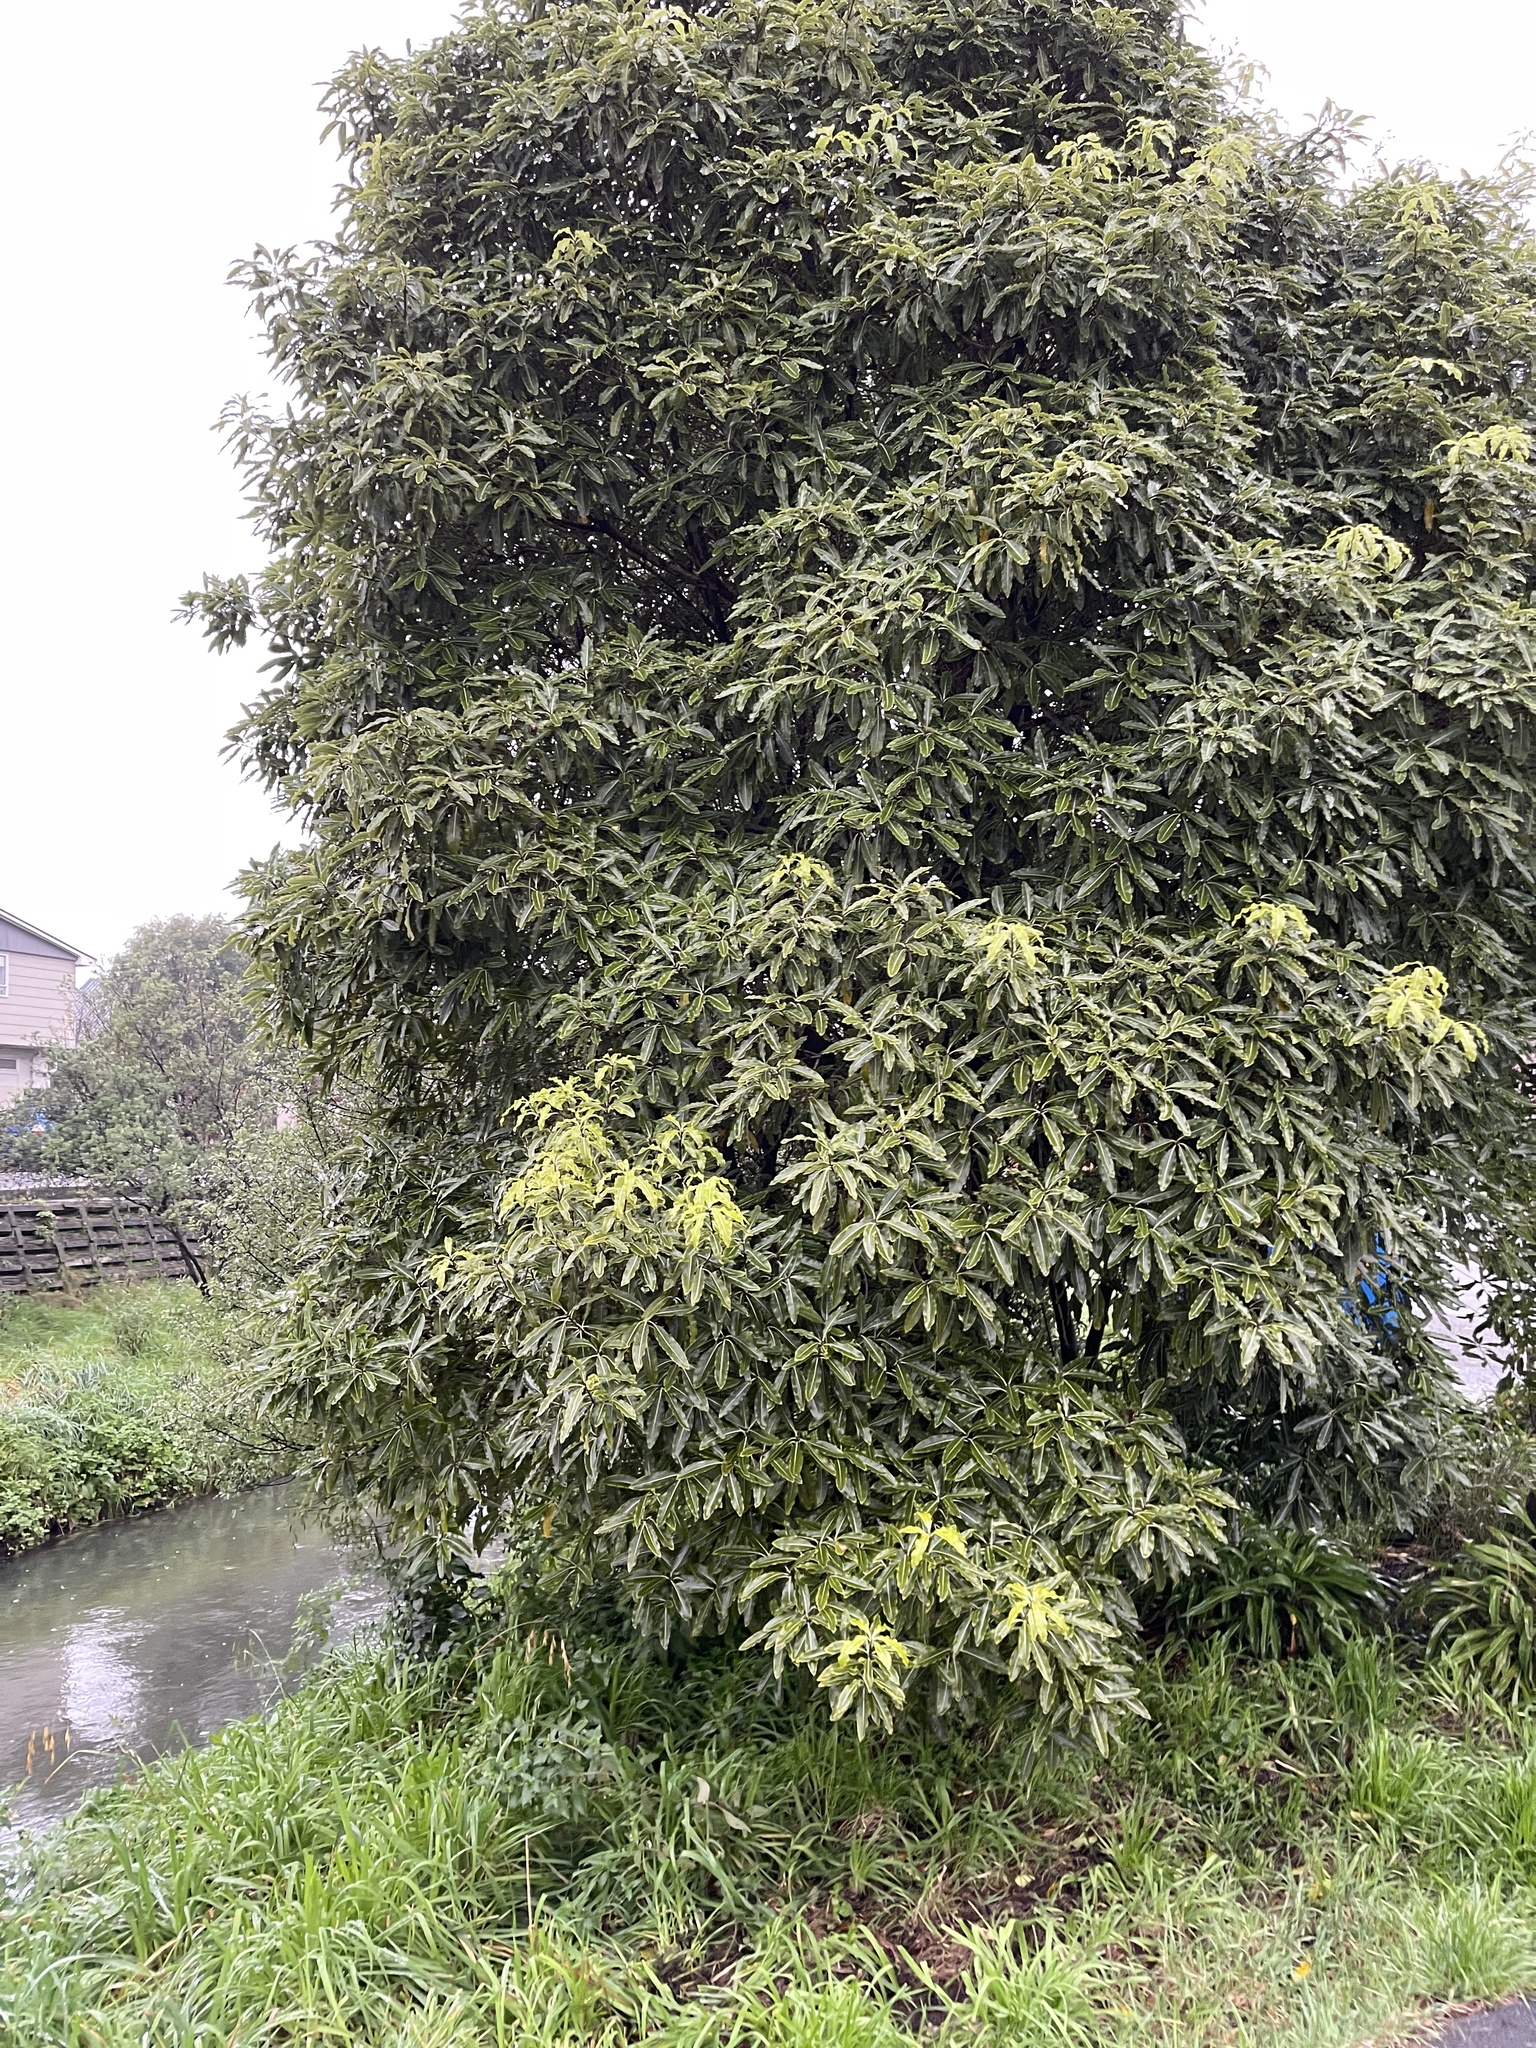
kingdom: Plantae
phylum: Tracheophyta
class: Magnoliopsida
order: Apiales
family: Pittosporaceae
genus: Pittosporum
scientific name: Pittosporum eugenioides
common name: Lemonwood
